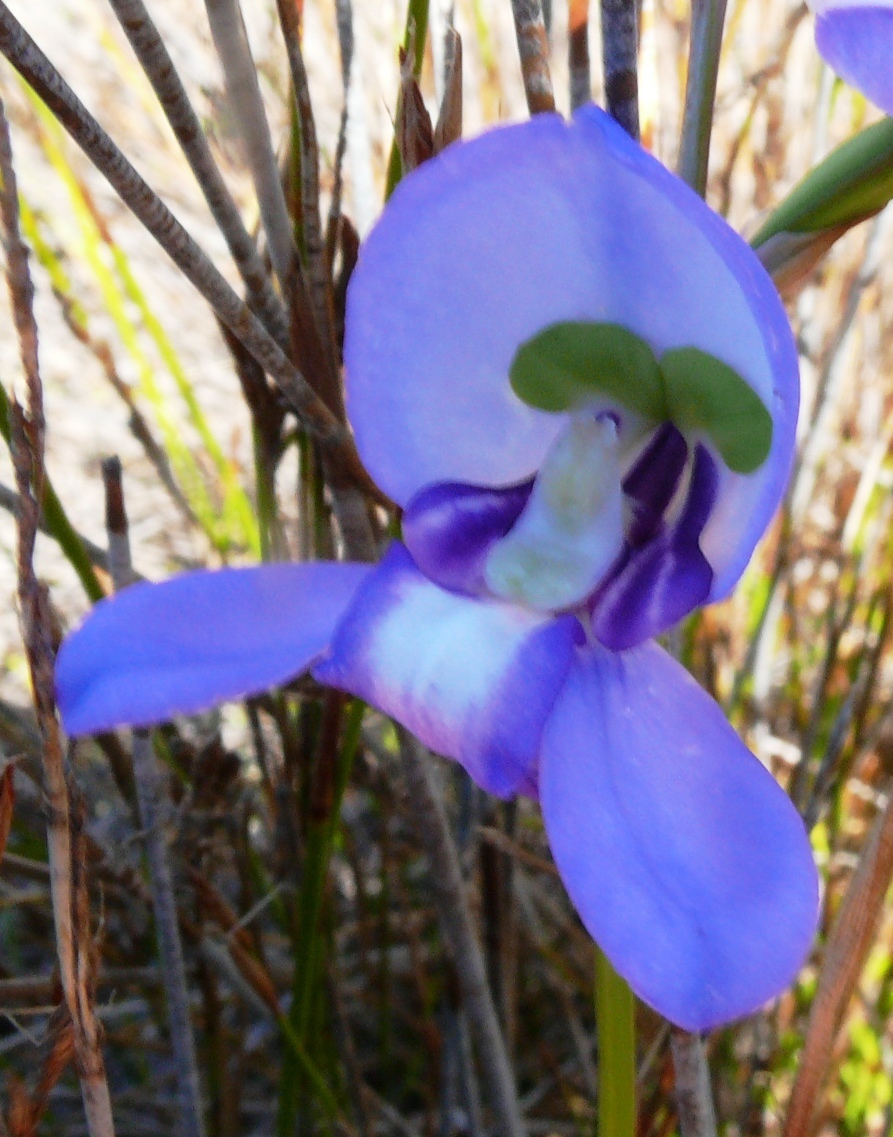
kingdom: Plantae
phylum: Tracheophyta
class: Liliopsida
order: Asparagales
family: Orchidaceae
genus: Disa
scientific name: Disa graminifolia
